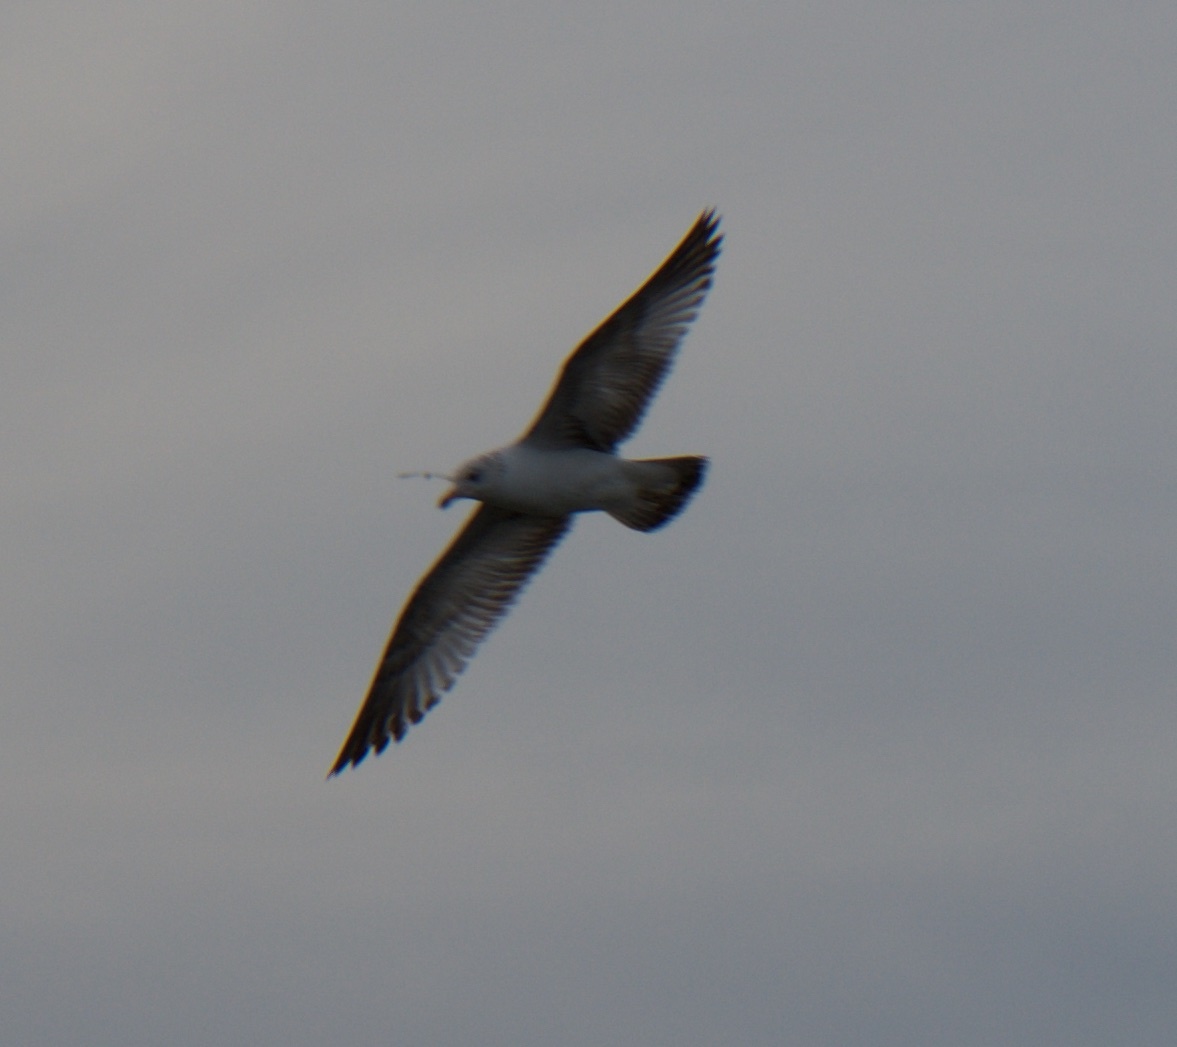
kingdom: Animalia
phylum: Chordata
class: Aves
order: Charadriiformes
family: Laridae
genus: Larus
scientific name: Larus delawarensis
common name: Ring-billed gull
